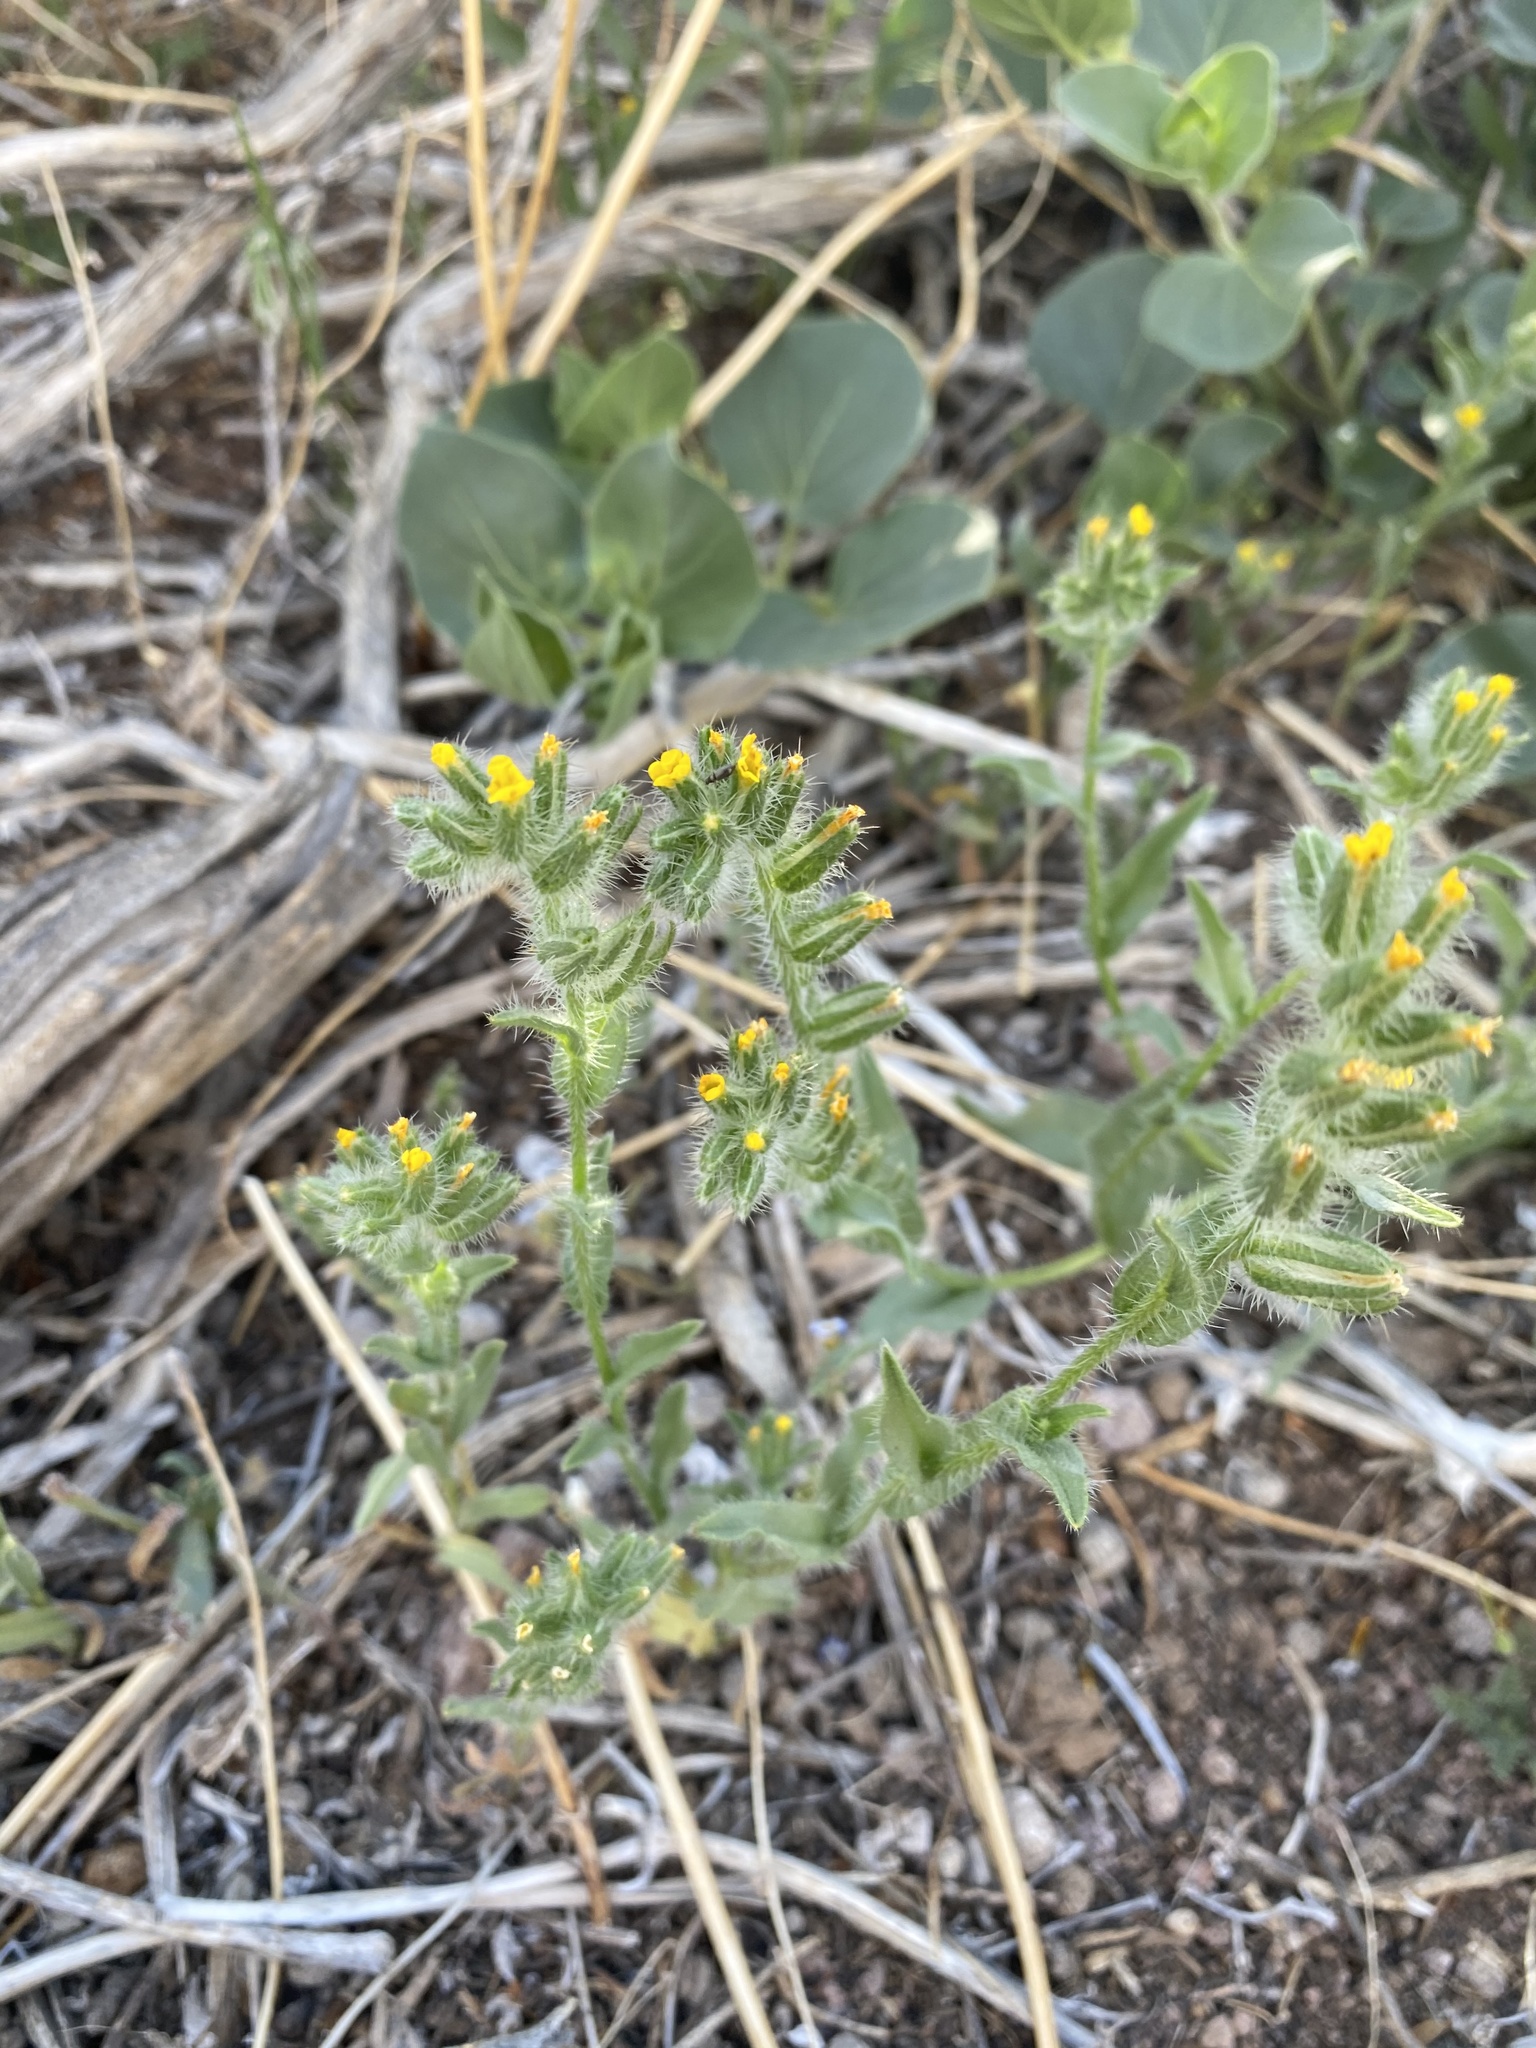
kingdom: Plantae
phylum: Tracheophyta
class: Magnoliopsida
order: Boraginales
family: Boraginaceae
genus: Amsinckia
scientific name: Amsinckia tessellata
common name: Tessellate fiddleneck
